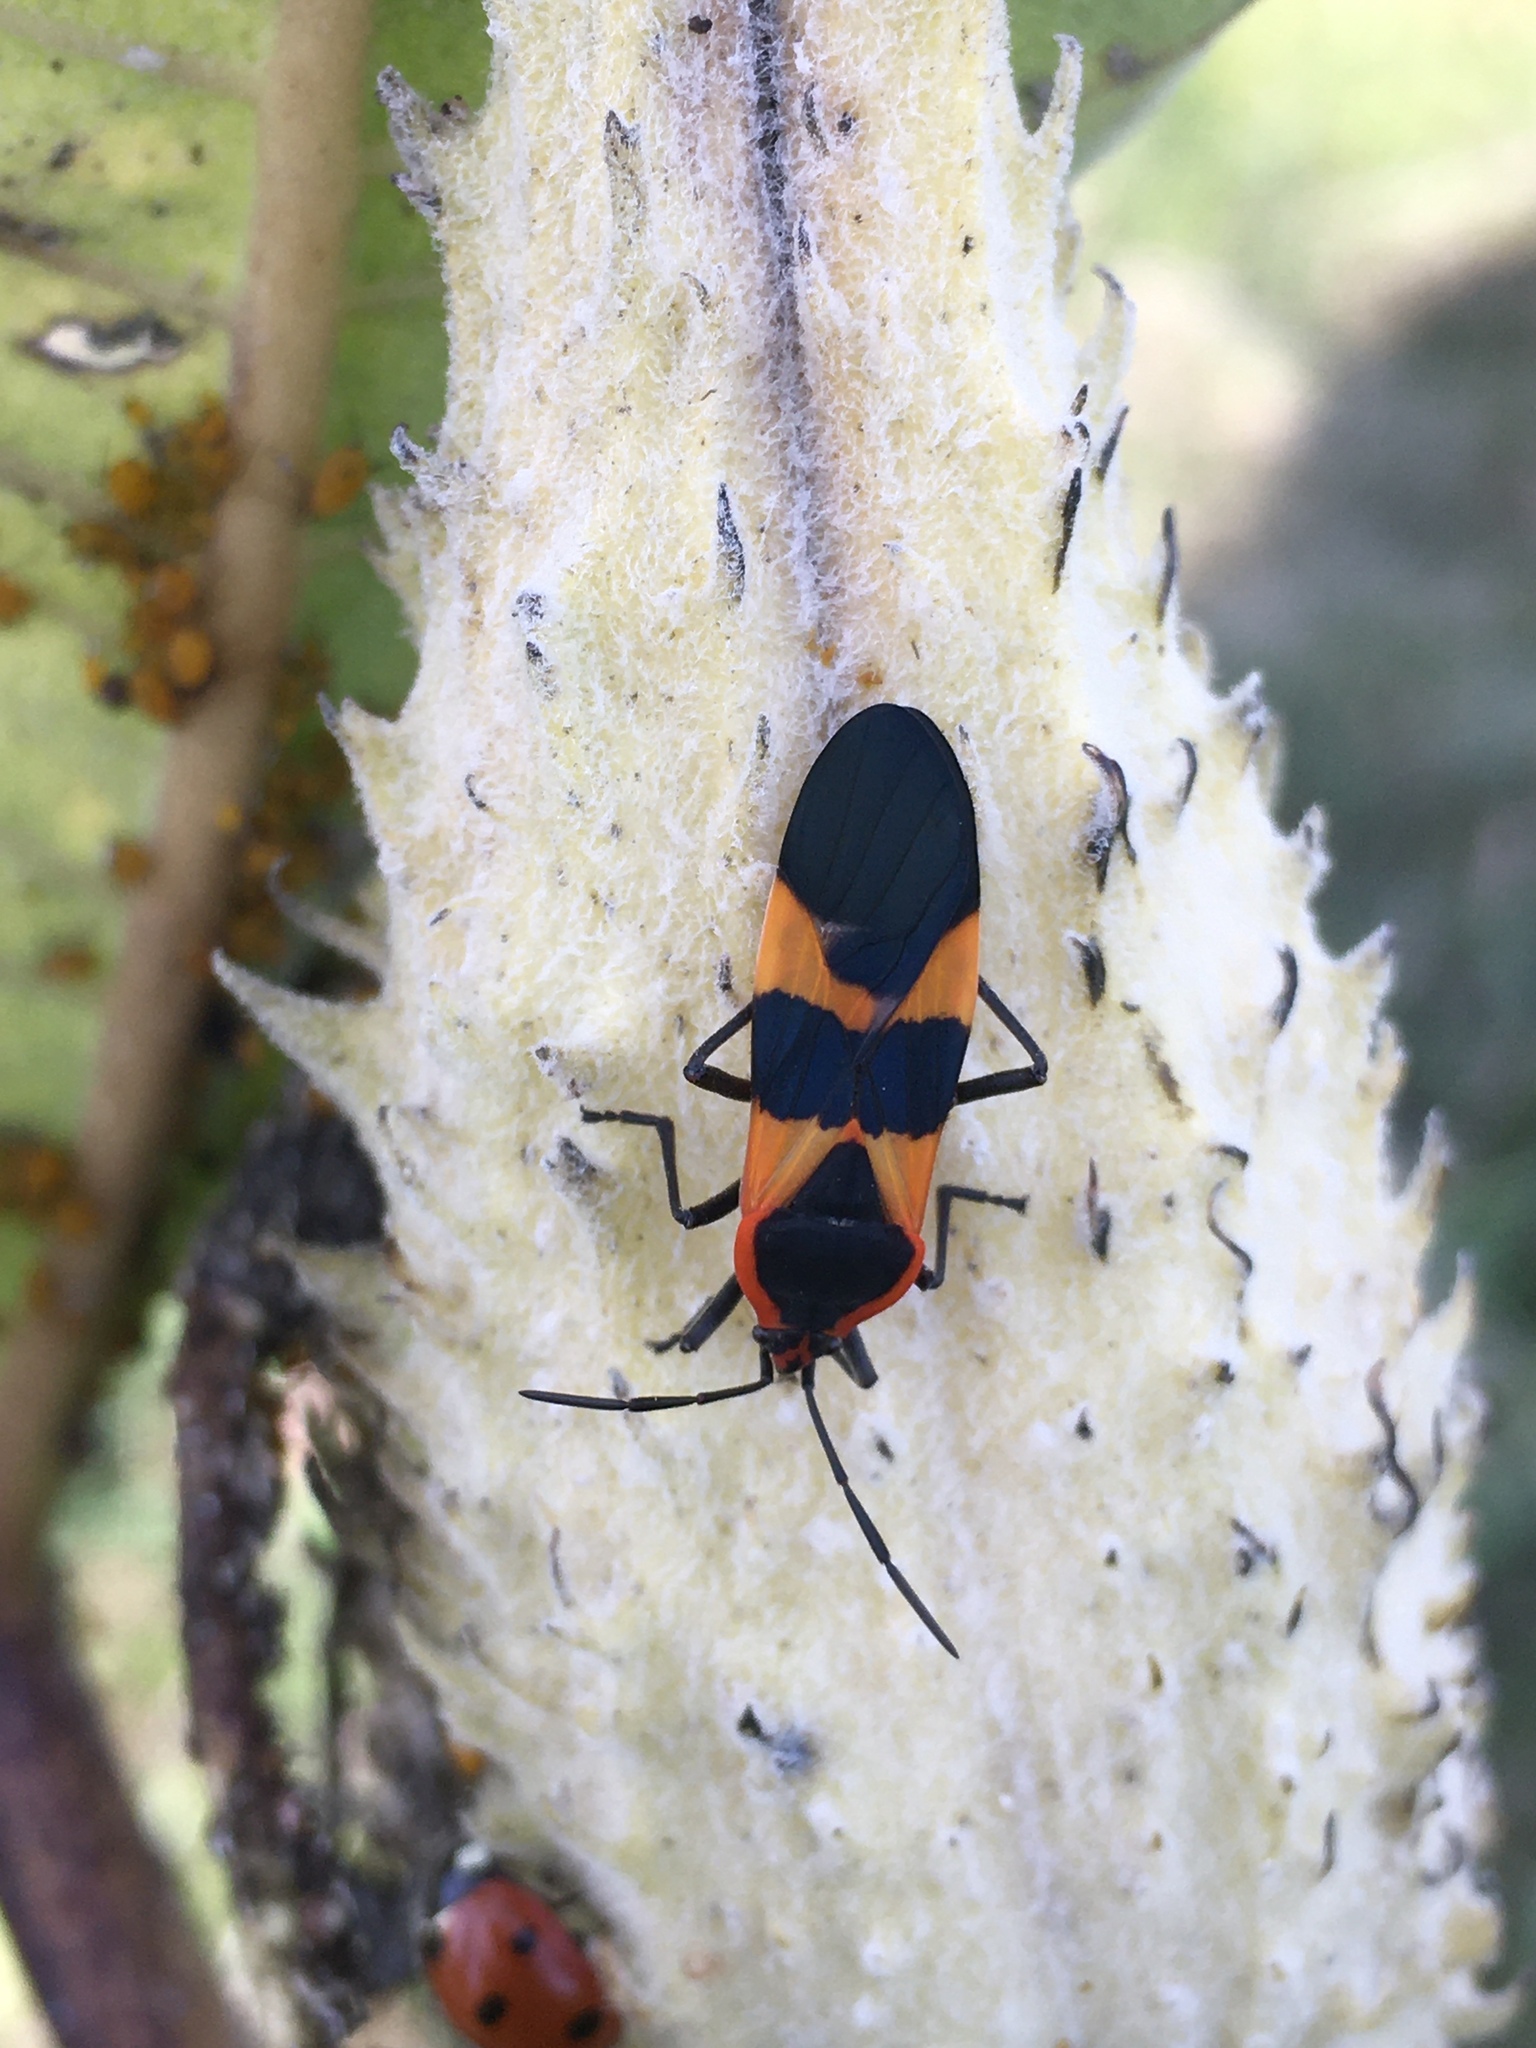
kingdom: Animalia
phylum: Arthropoda
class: Insecta
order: Hemiptera
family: Lygaeidae
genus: Oncopeltus
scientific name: Oncopeltus fasciatus
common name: Large milkweed bug
